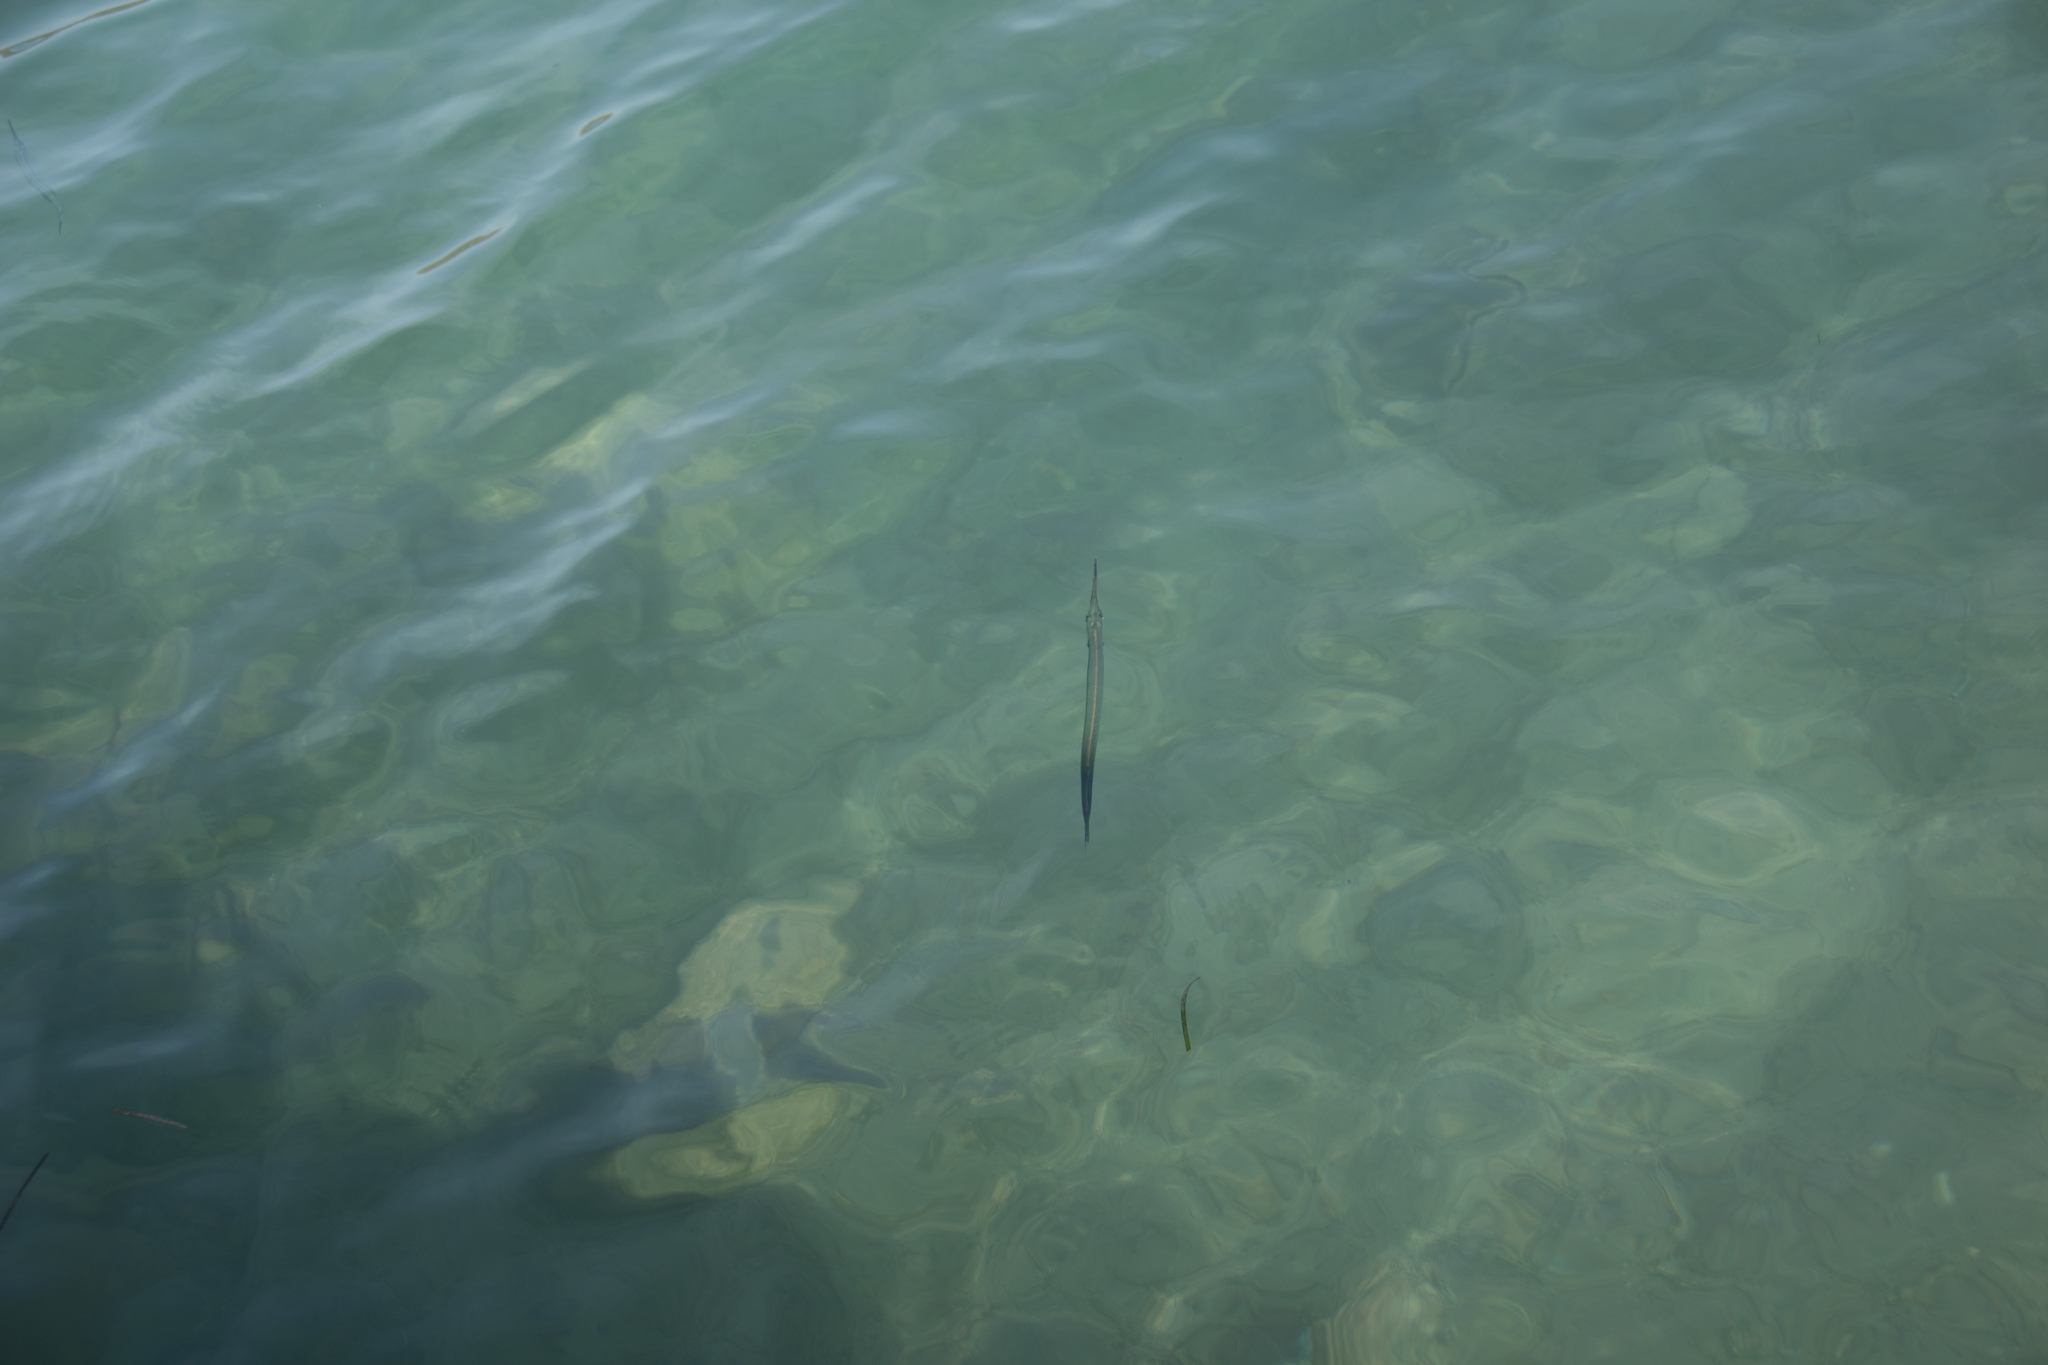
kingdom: Animalia
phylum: Chordata
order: Beloniformes
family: Belonidae
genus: Belone
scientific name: Belone
